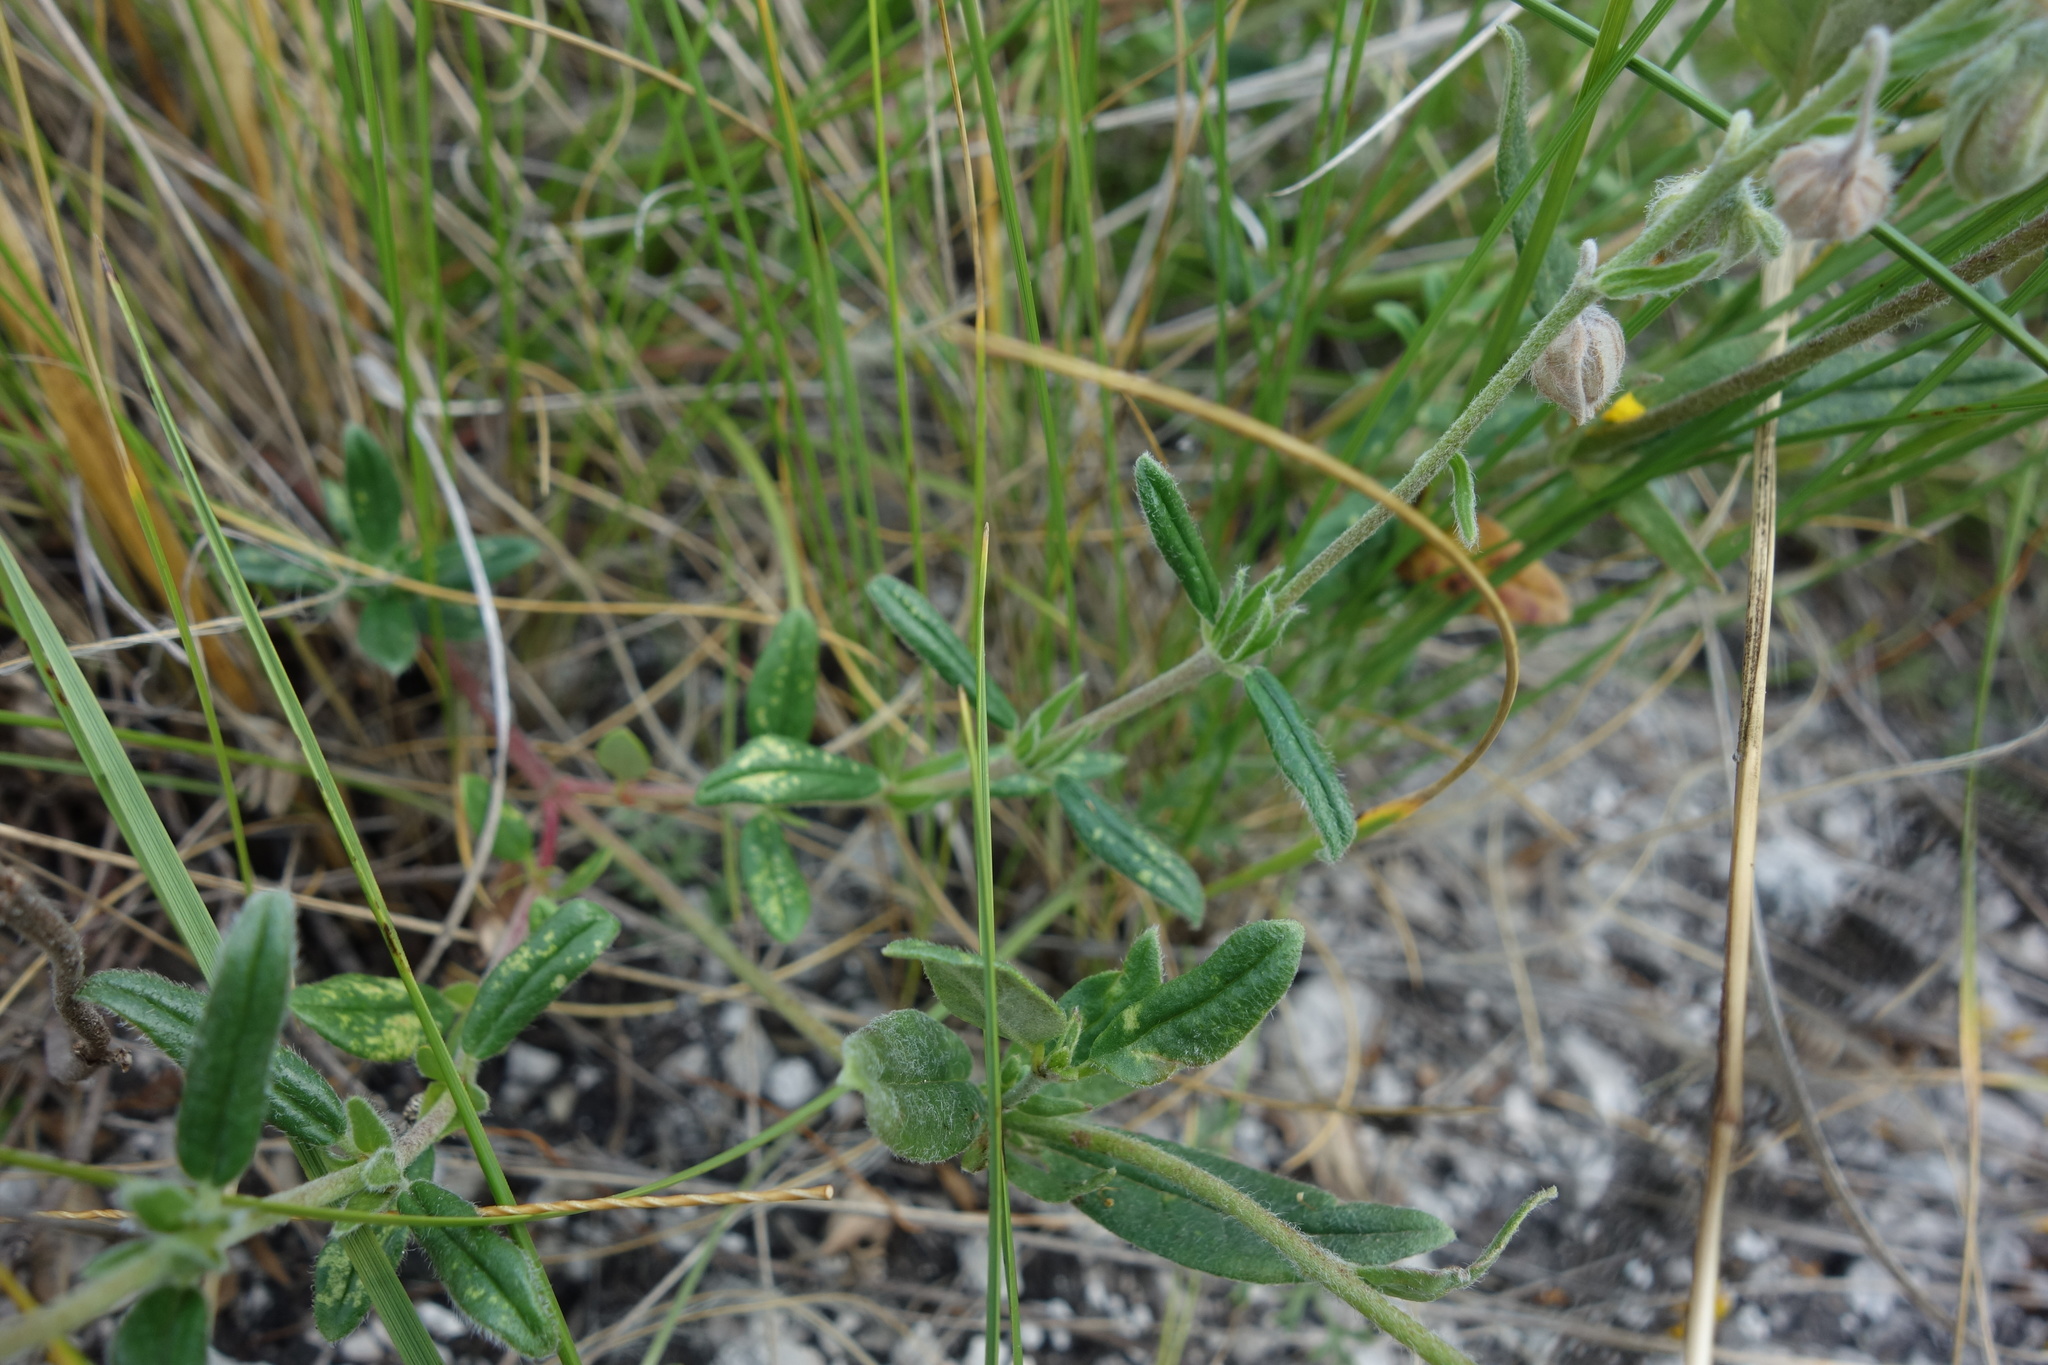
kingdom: Plantae
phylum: Tracheophyta
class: Magnoliopsida
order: Malvales
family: Cistaceae
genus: Helianthemum
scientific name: Helianthemum nummularium
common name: Common rock-rose
